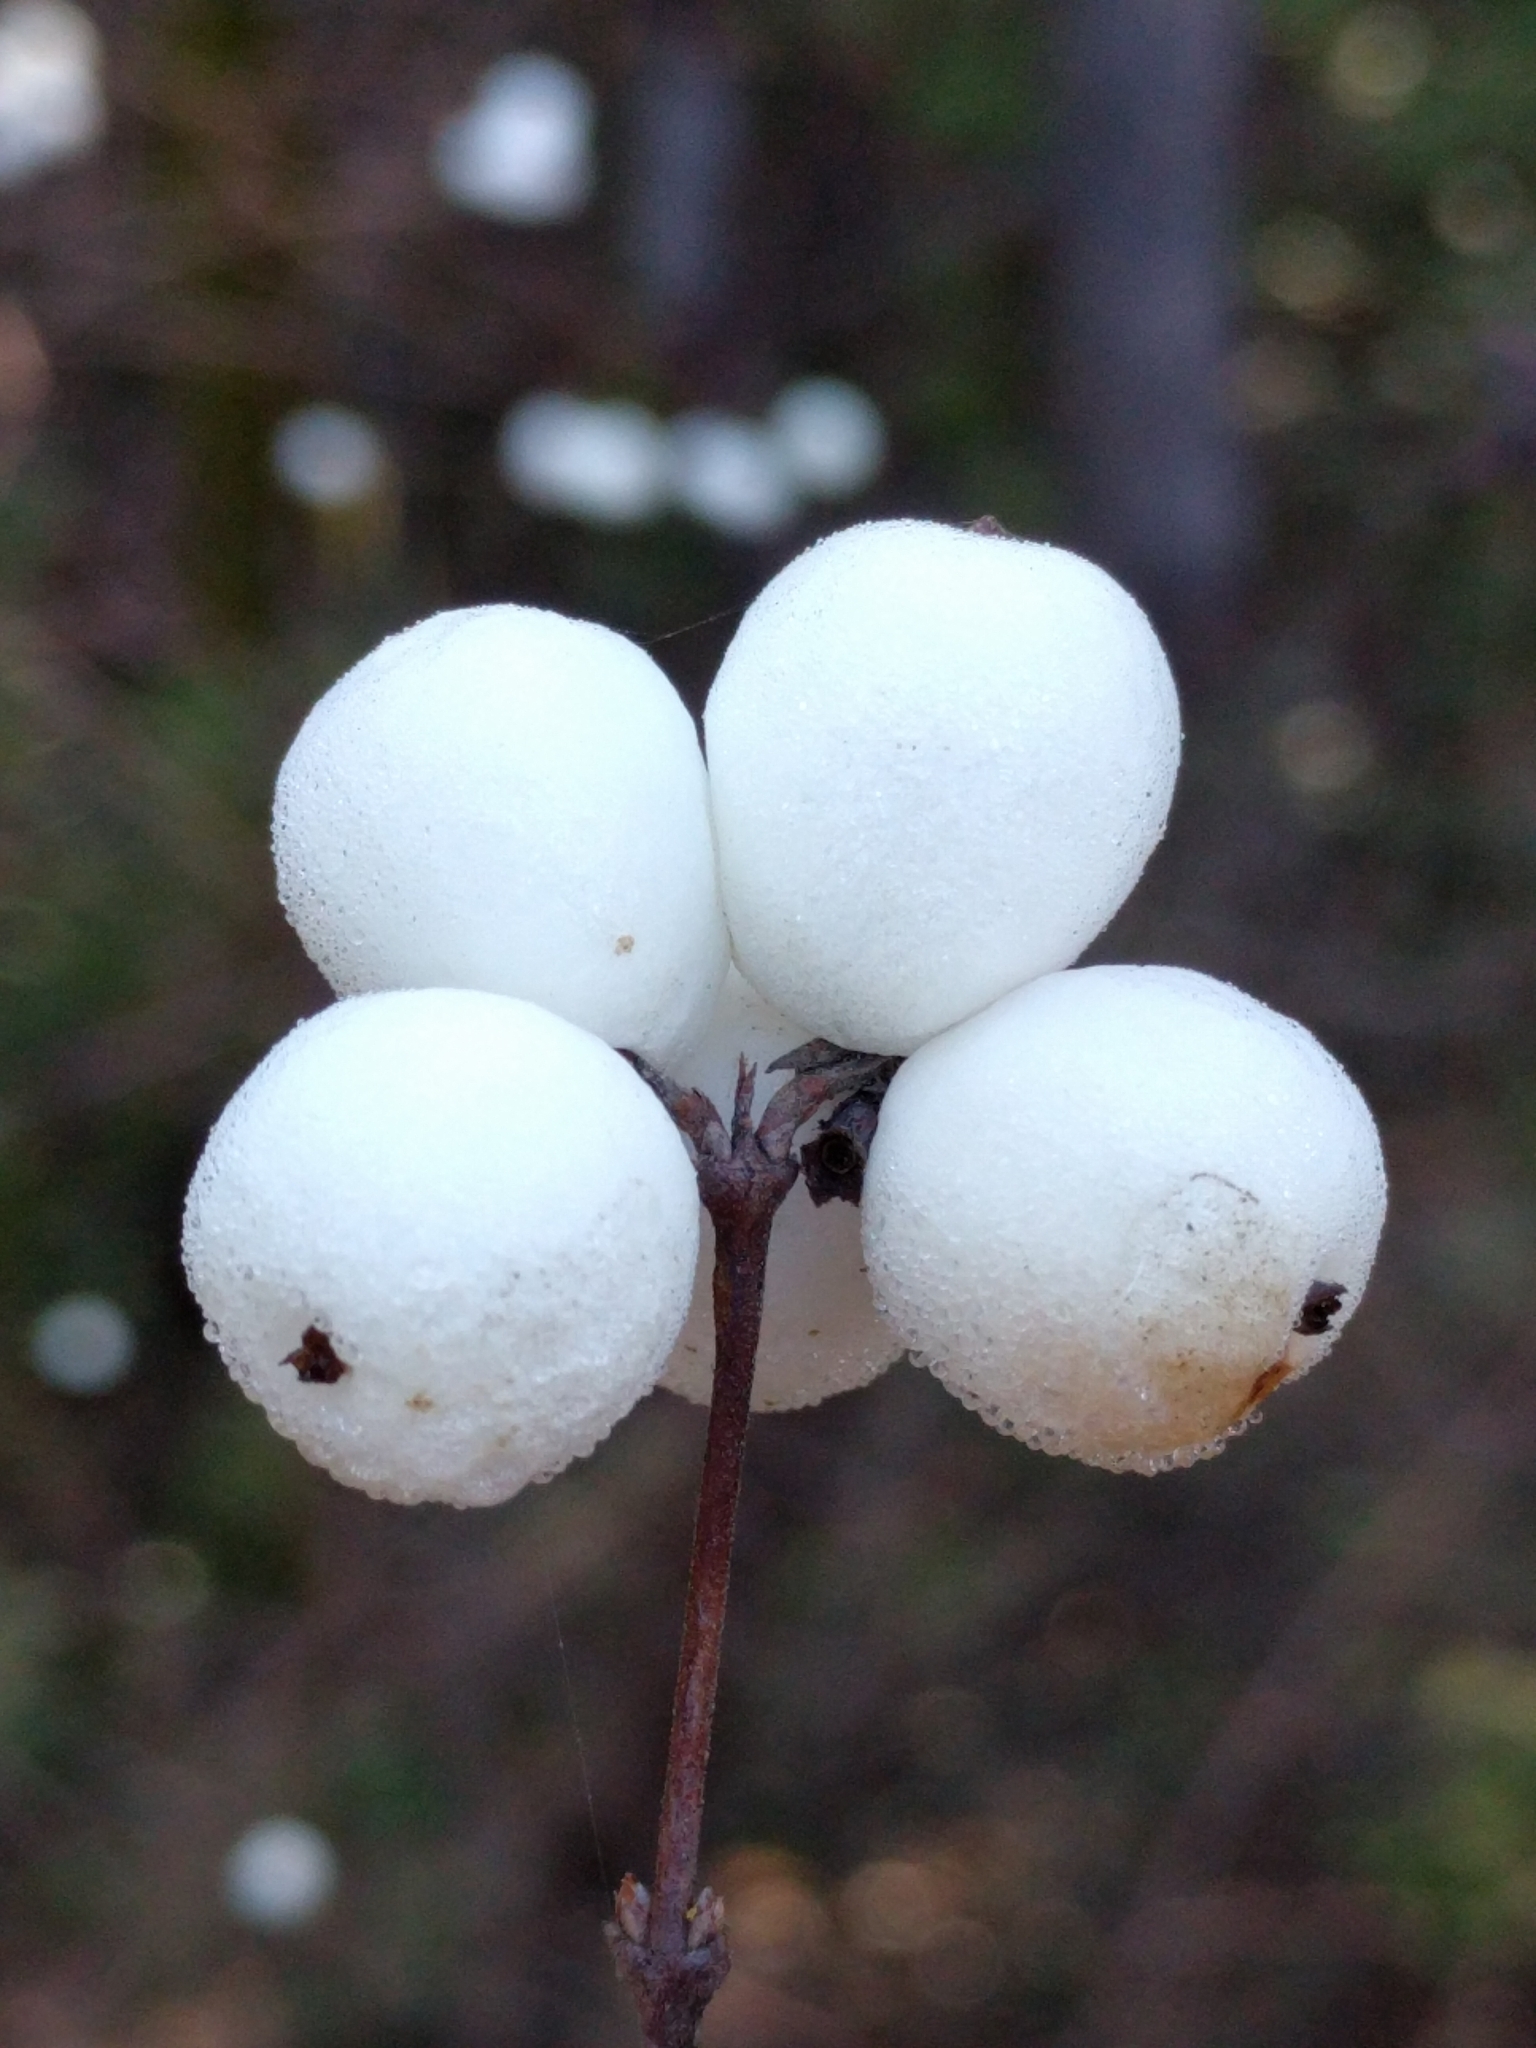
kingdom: Plantae
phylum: Tracheophyta
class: Magnoliopsida
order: Dipsacales
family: Caprifoliaceae
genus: Symphoricarpos
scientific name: Symphoricarpos albus
